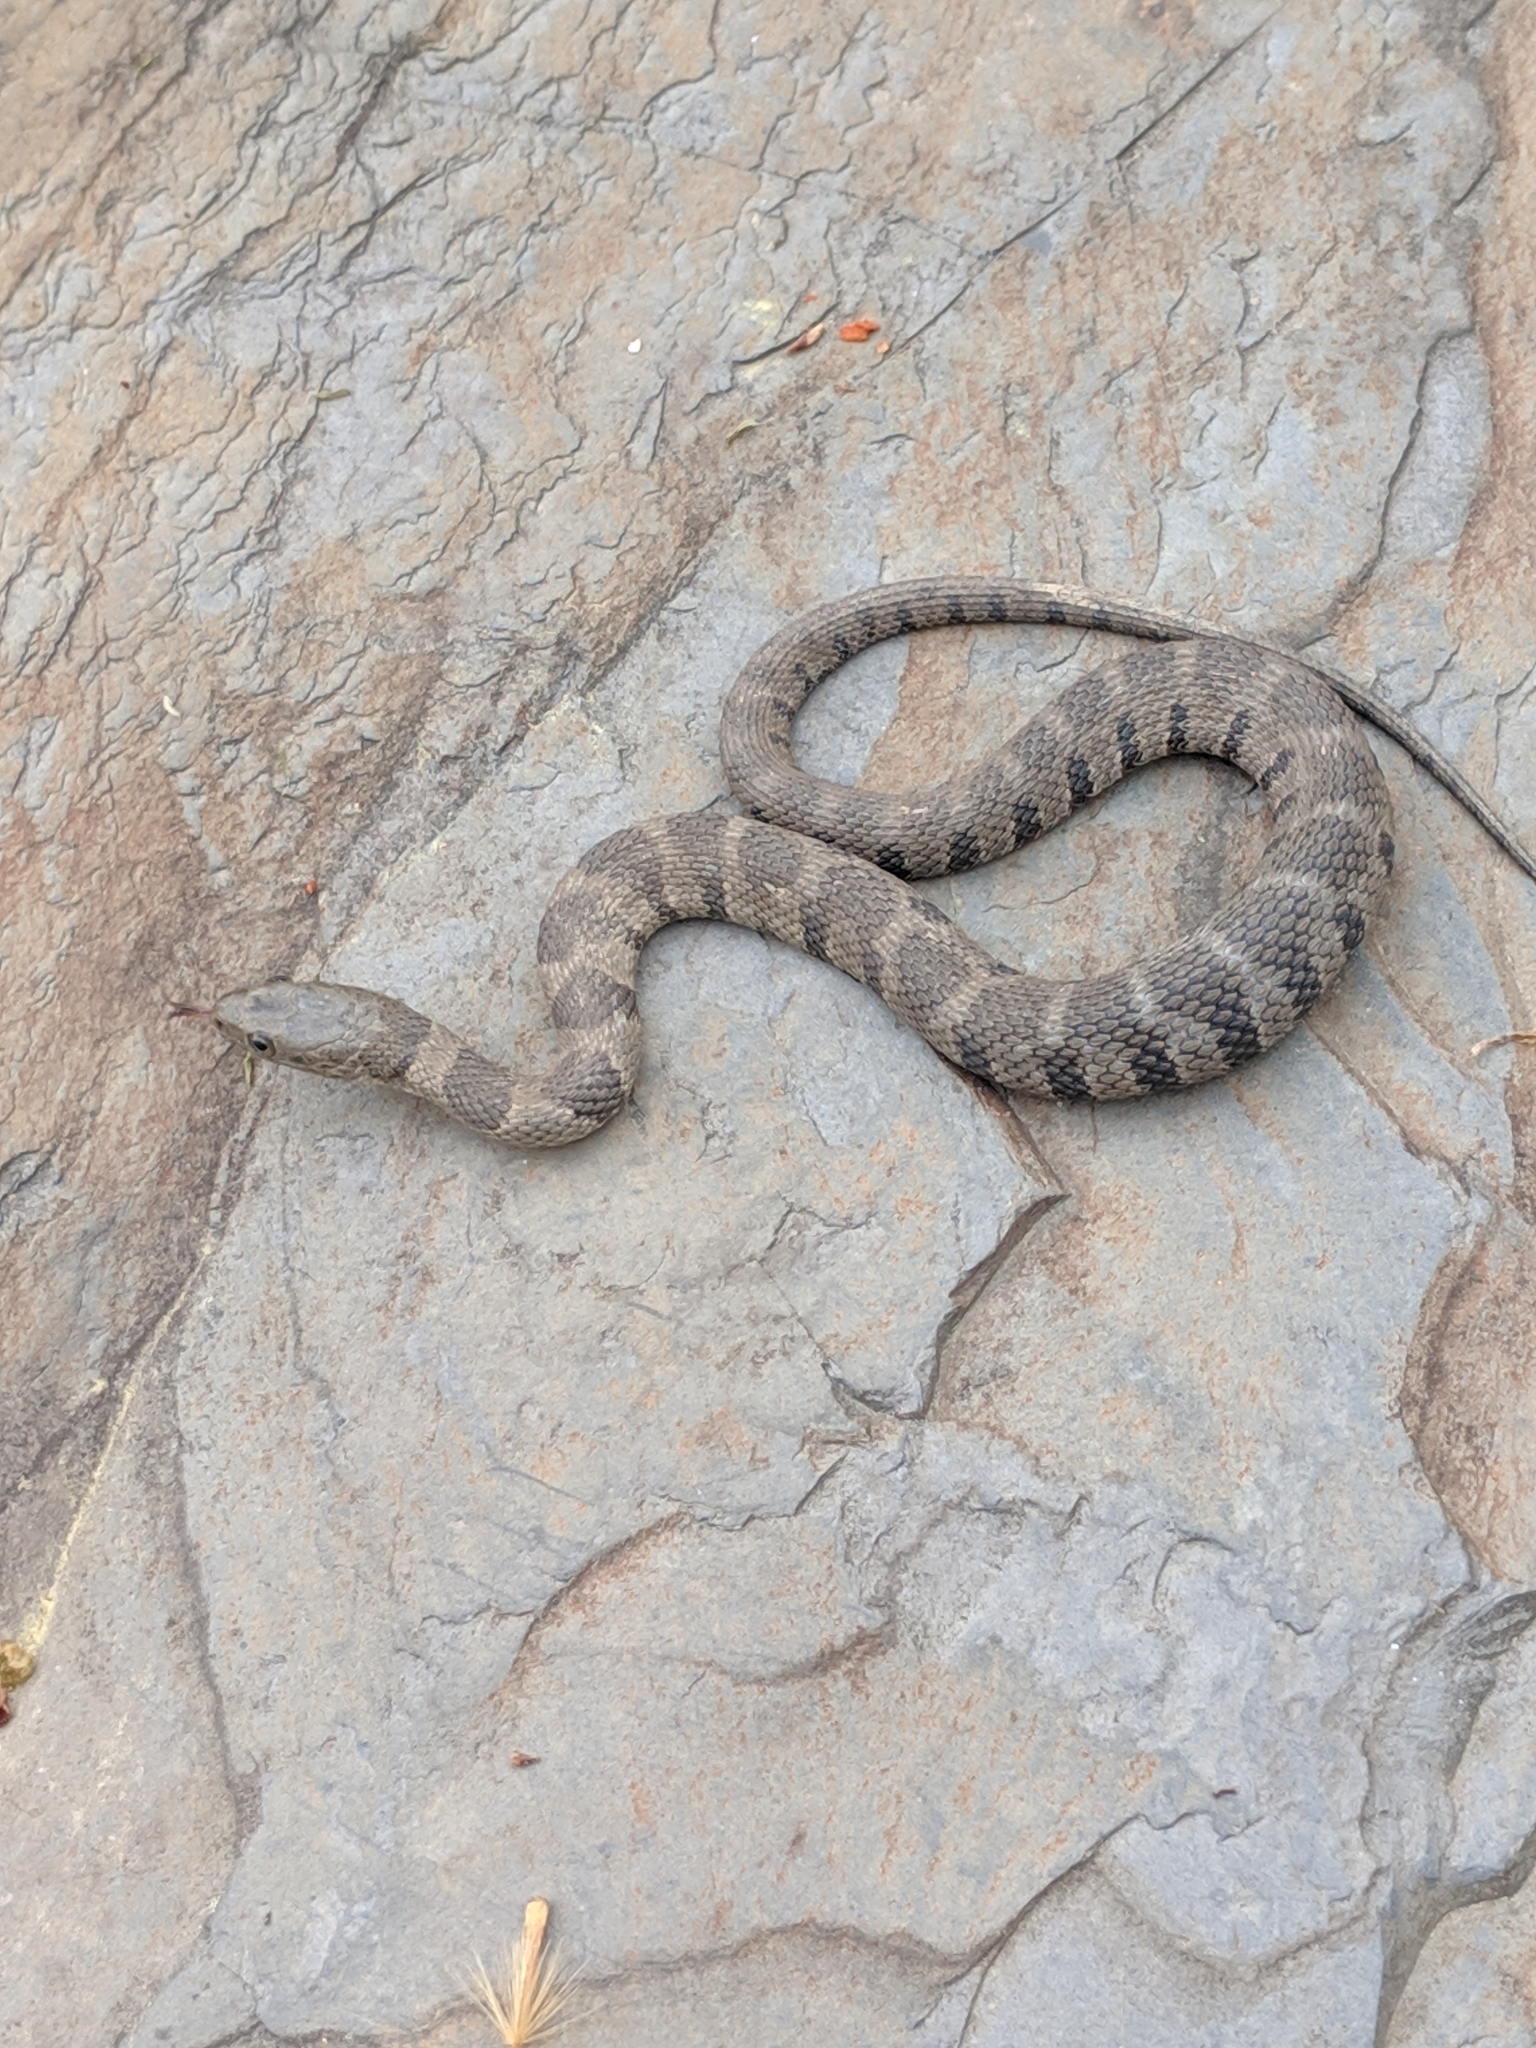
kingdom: Animalia
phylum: Chordata
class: Squamata
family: Colubridae
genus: Nerodia
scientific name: Nerodia sipedon
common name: Northern water snake
